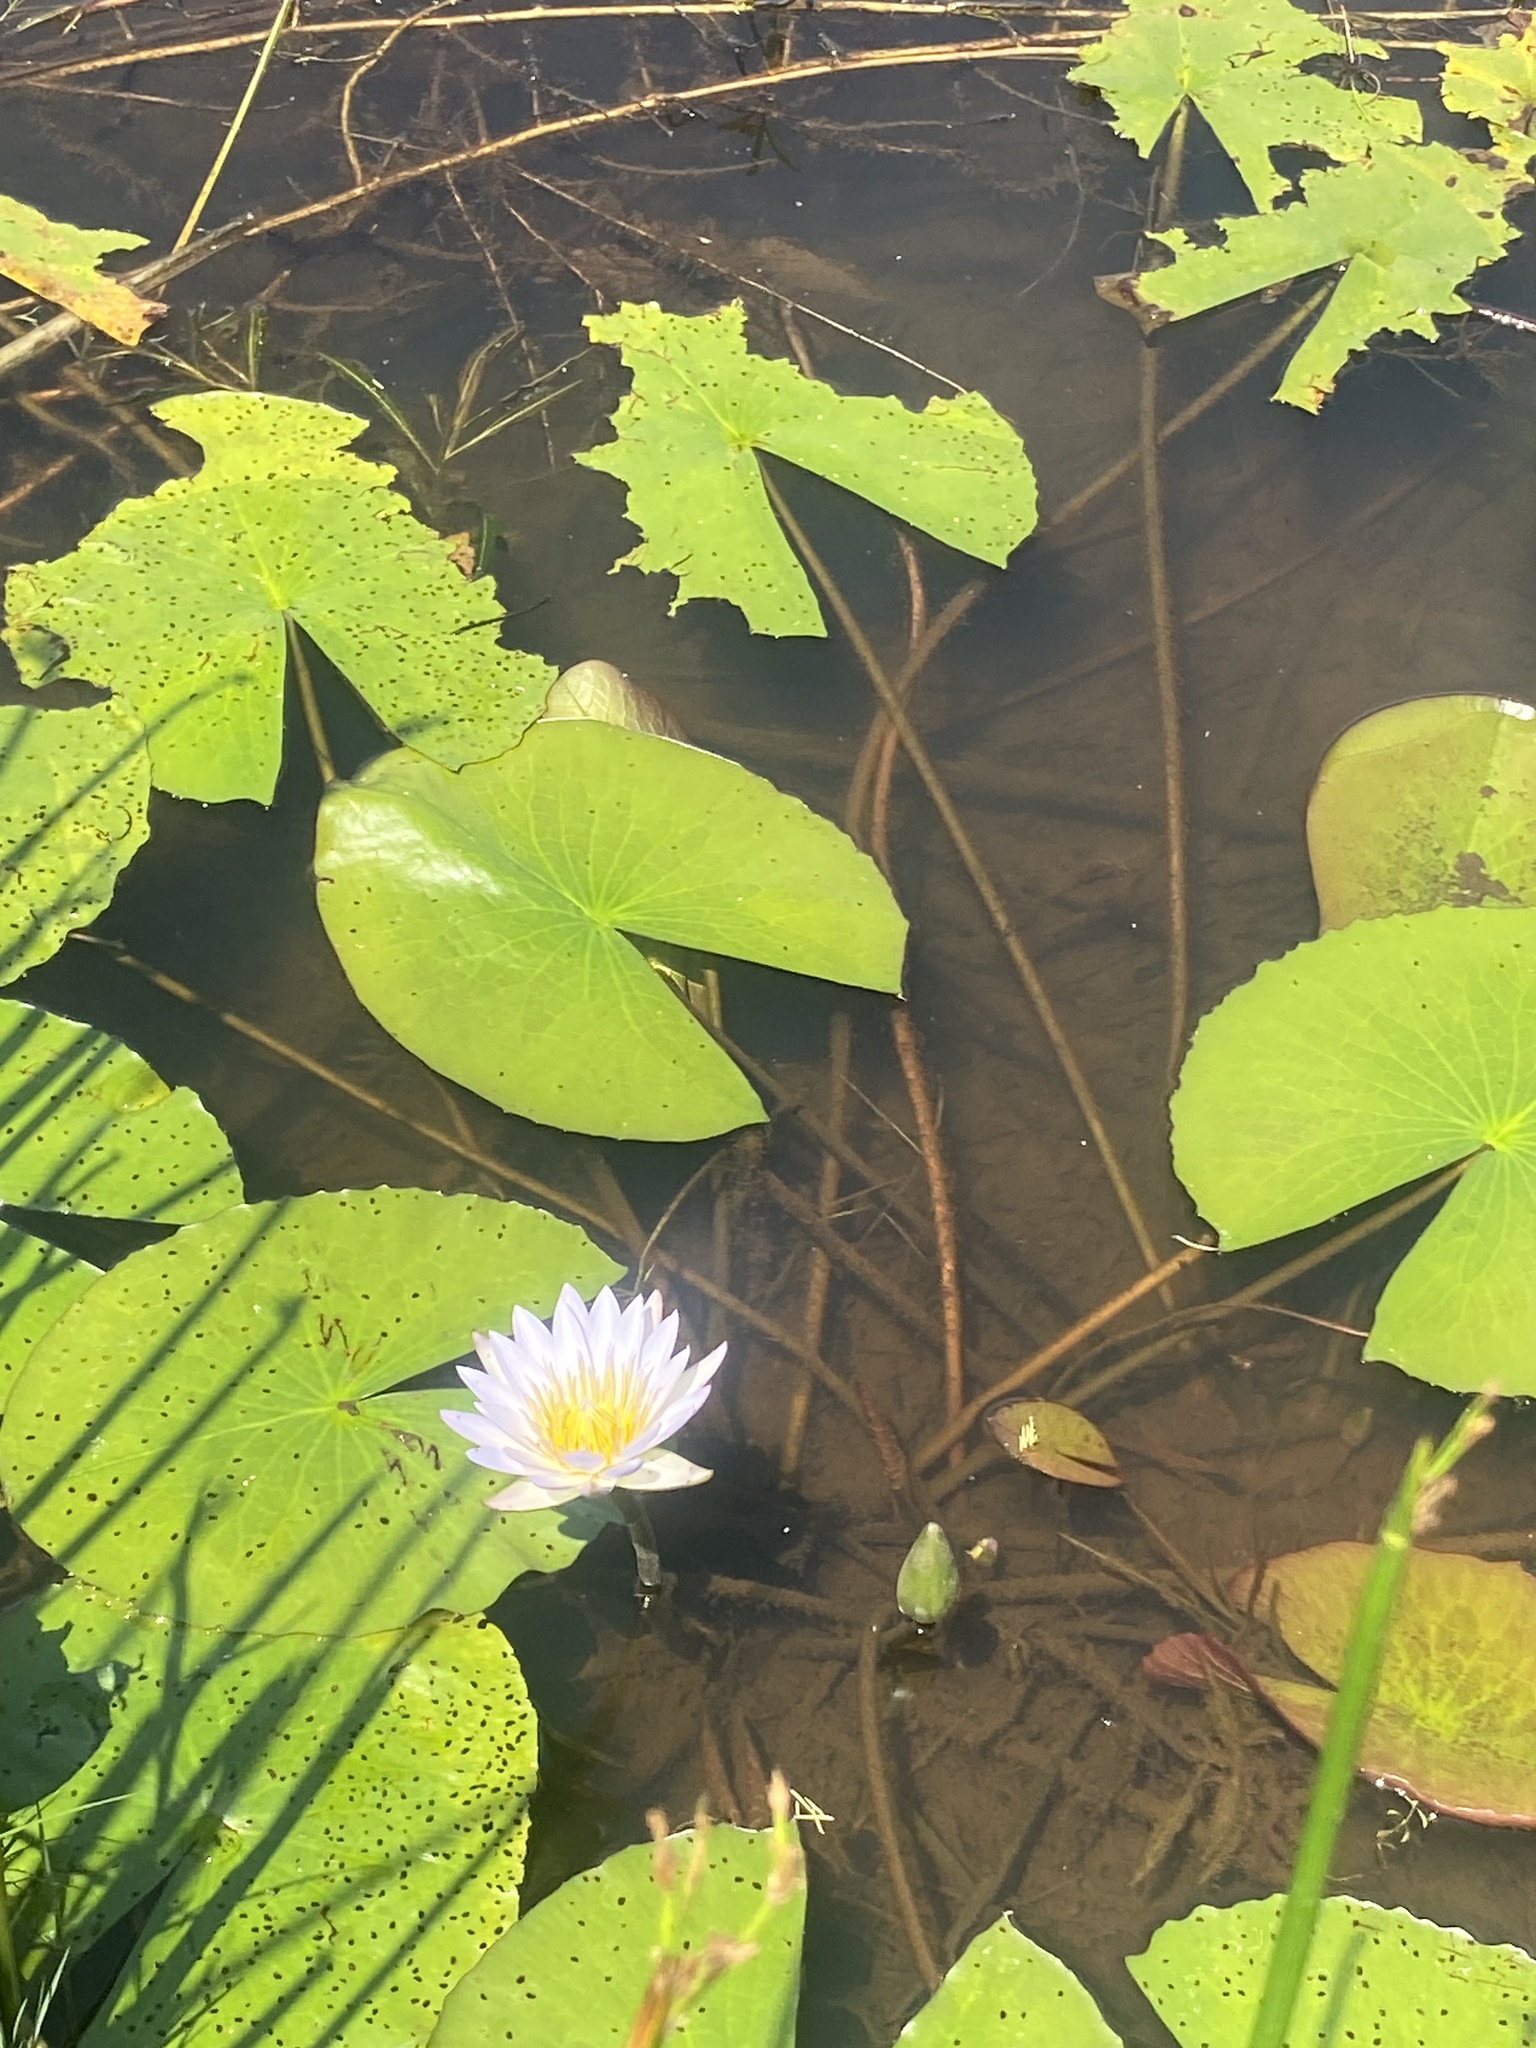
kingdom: Plantae
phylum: Tracheophyta
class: Magnoliopsida
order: Nymphaeales
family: Nymphaeaceae
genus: Nymphaea
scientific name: Nymphaea nouchali
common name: Blue lotus
